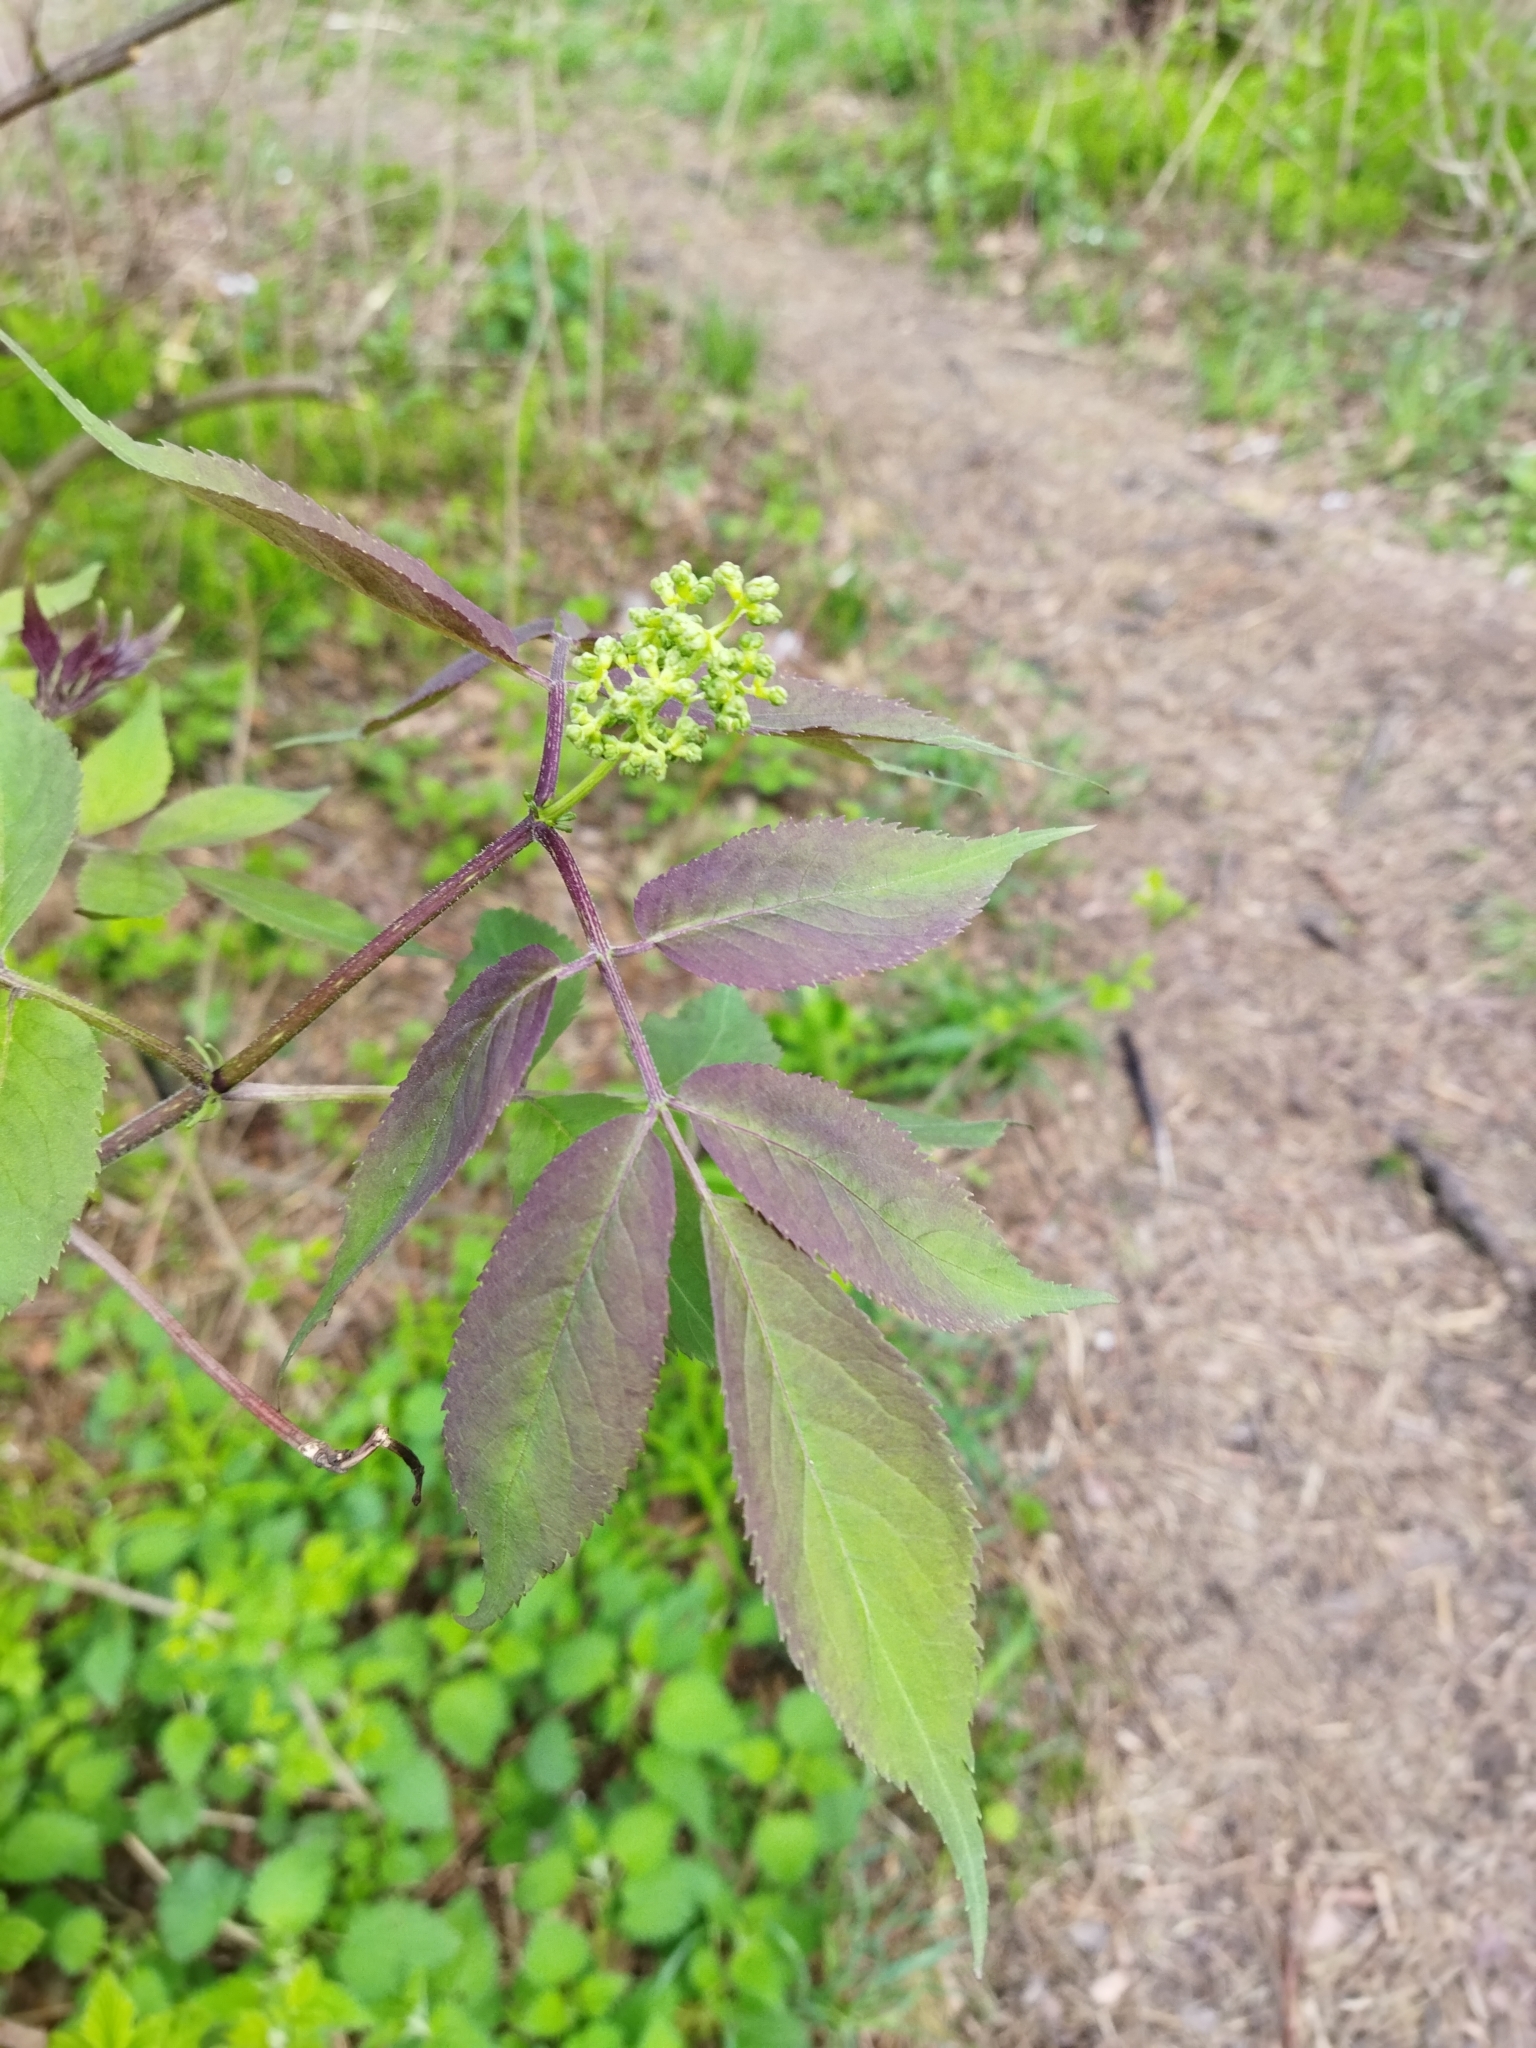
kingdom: Plantae
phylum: Tracheophyta
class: Magnoliopsida
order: Dipsacales
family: Viburnaceae
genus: Sambucus
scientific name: Sambucus racemosa
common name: Red-berried elder
